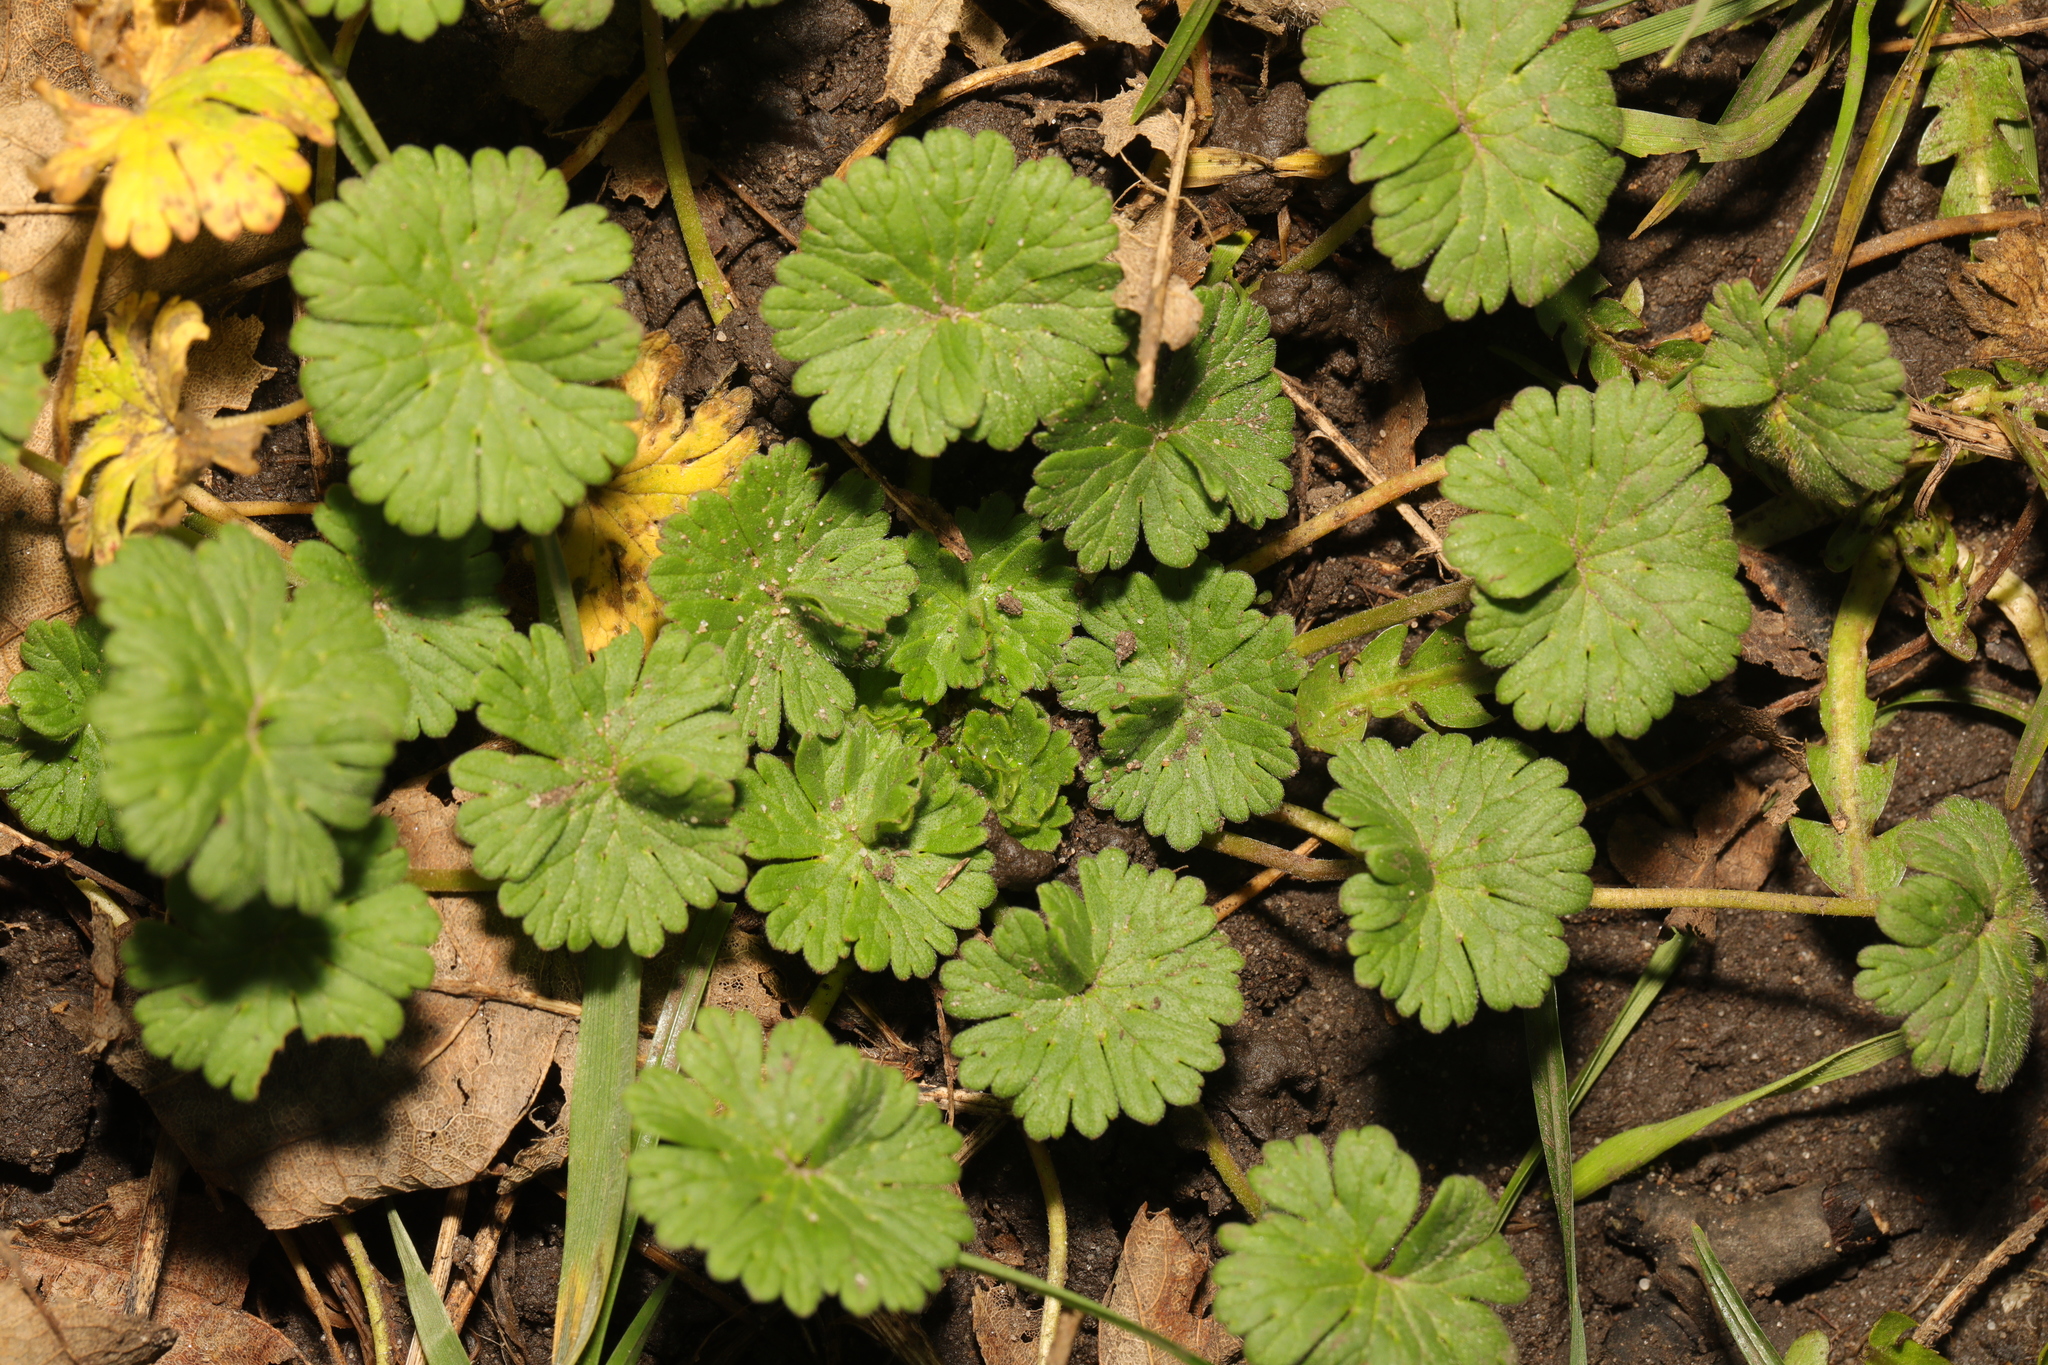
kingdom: Plantae
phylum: Tracheophyta
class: Magnoliopsida
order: Geraniales
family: Geraniaceae
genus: Geranium
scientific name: Geranium molle
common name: Dove's-foot crane's-bill
